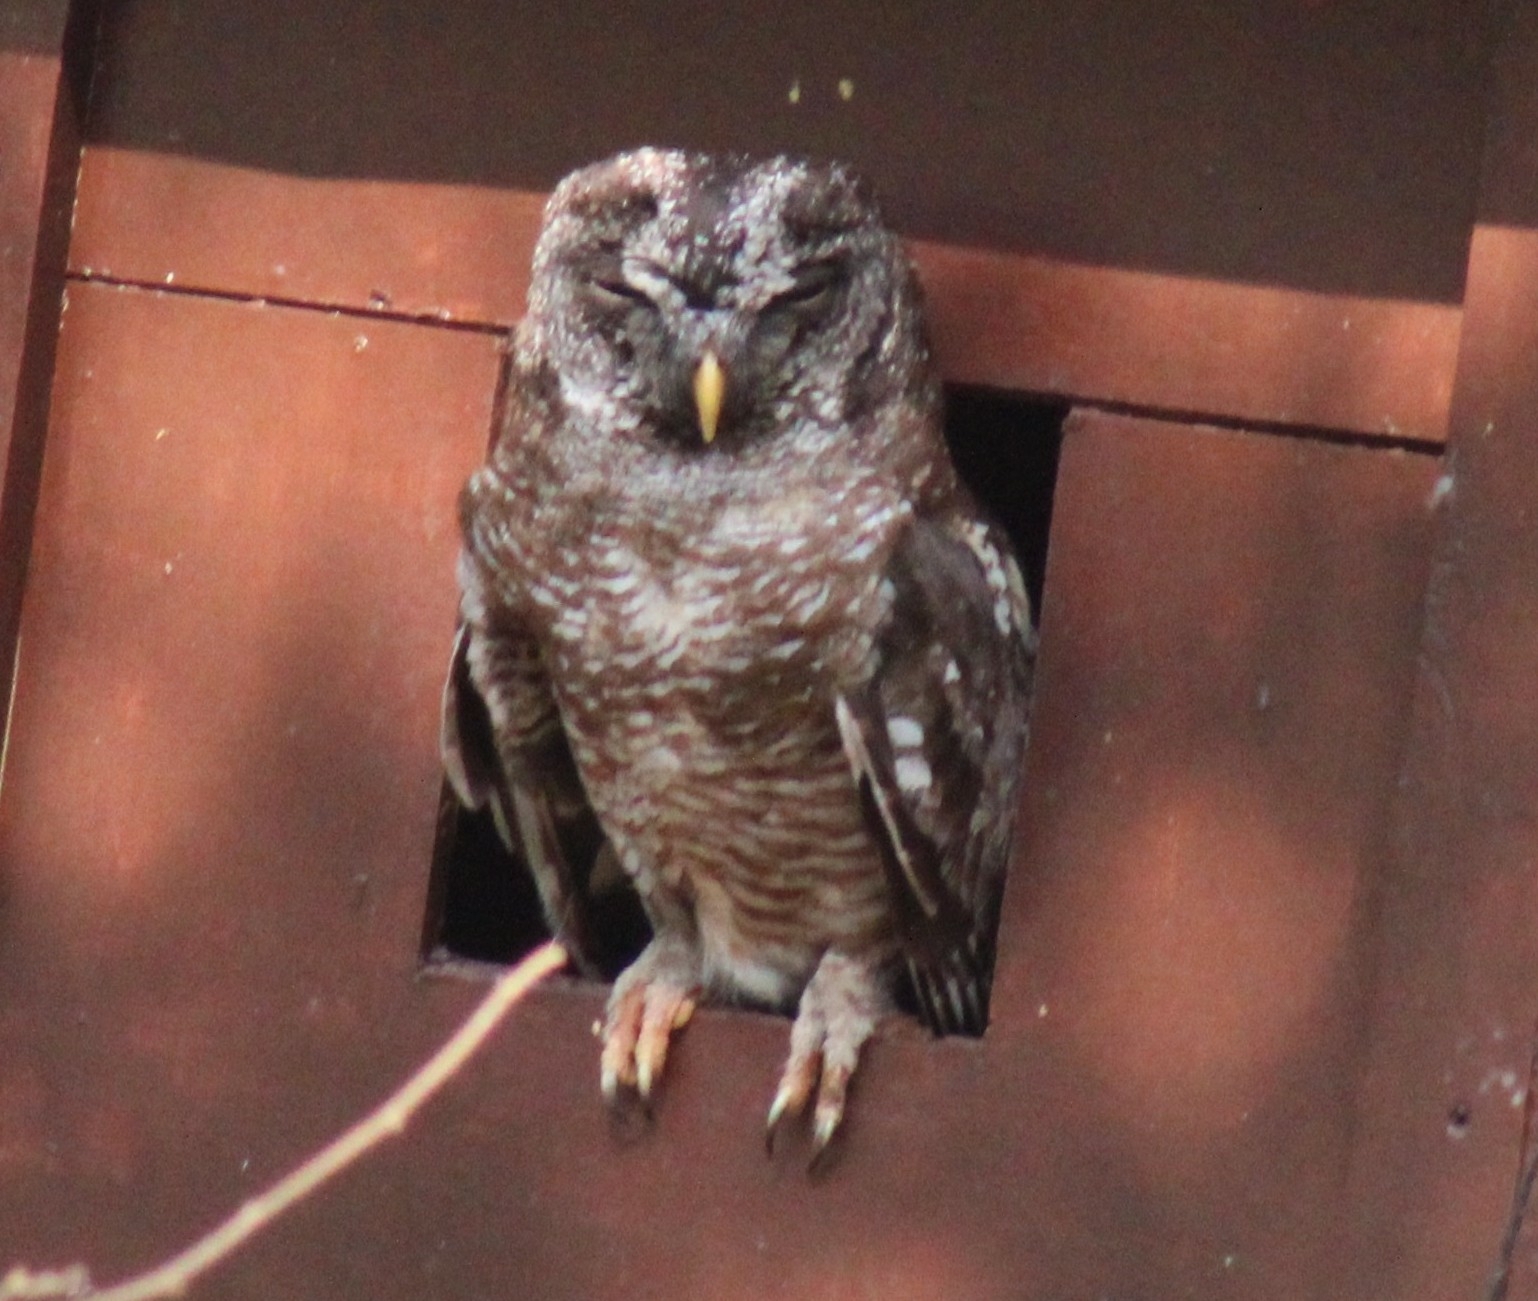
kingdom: Animalia
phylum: Chordata
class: Aves
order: Strigiformes
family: Strigidae
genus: Strix
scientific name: Strix woodfordii
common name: African wood owl
